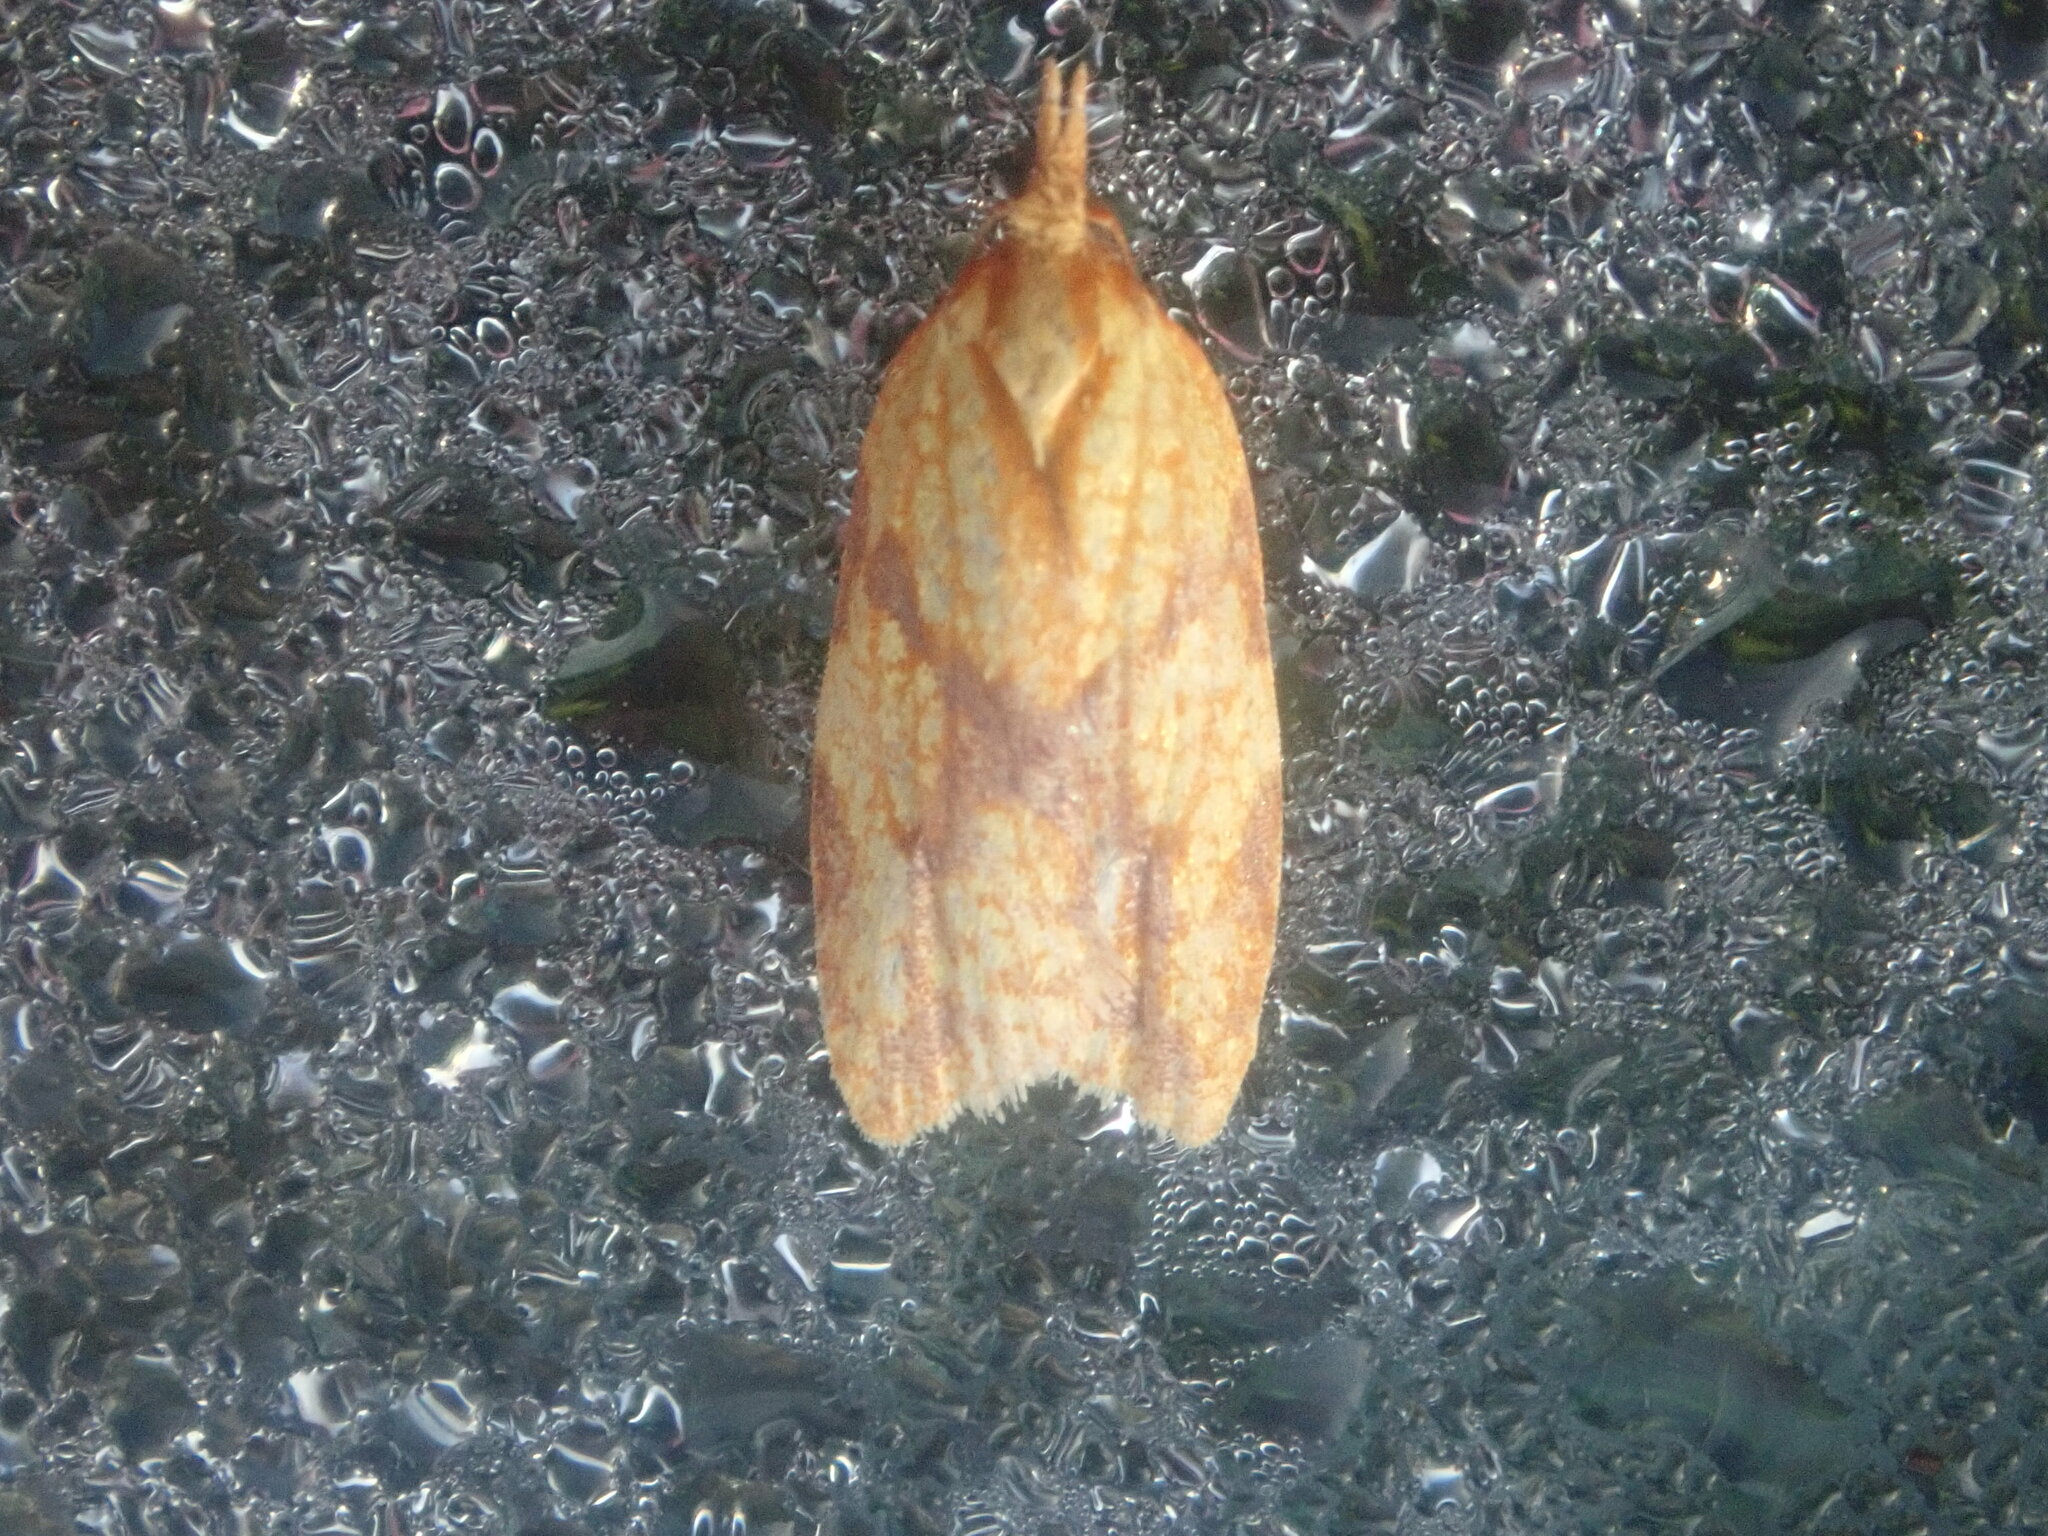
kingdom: Animalia
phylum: Arthropoda
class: Insecta
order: Lepidoptera
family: Tortricidae
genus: Sparganothis
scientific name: Sparganothis sulfureana
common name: Sparganothis fruitworm moth
